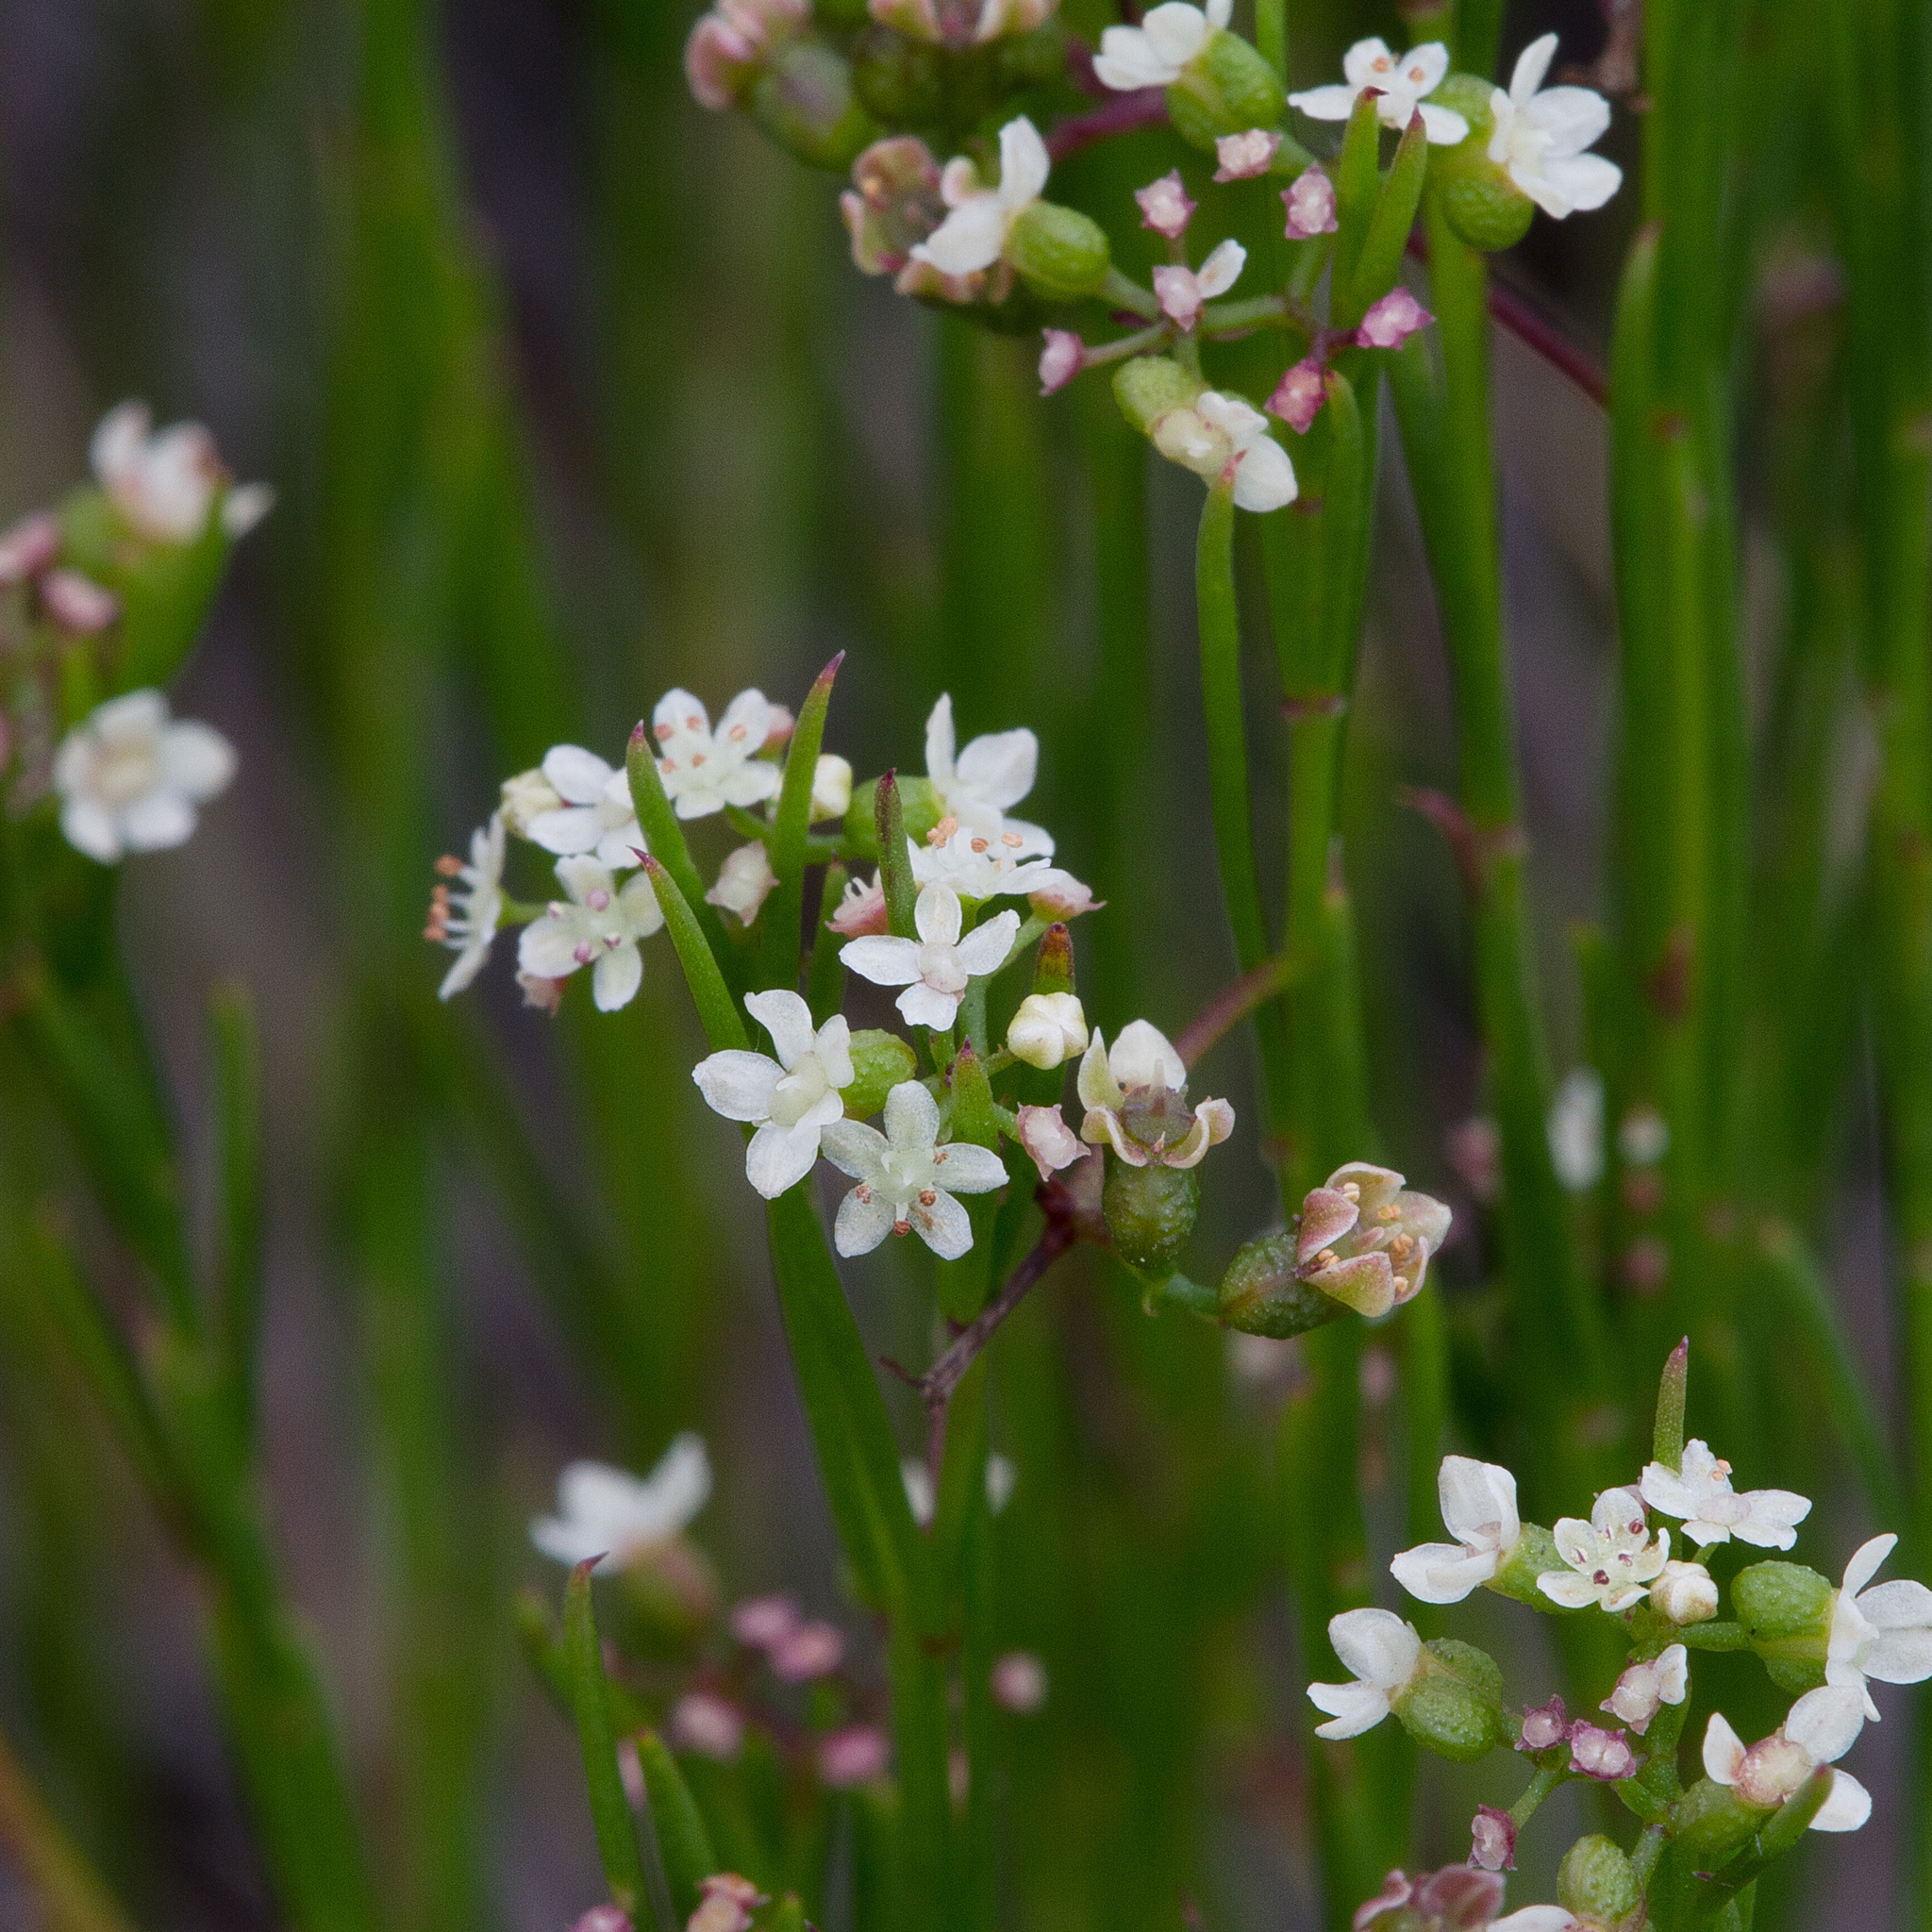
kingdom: Plantae
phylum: Tracheophyta
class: Magnoliopsida
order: Apiales
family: Apiaceae
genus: Platysace
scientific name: Platysace heterophylla
